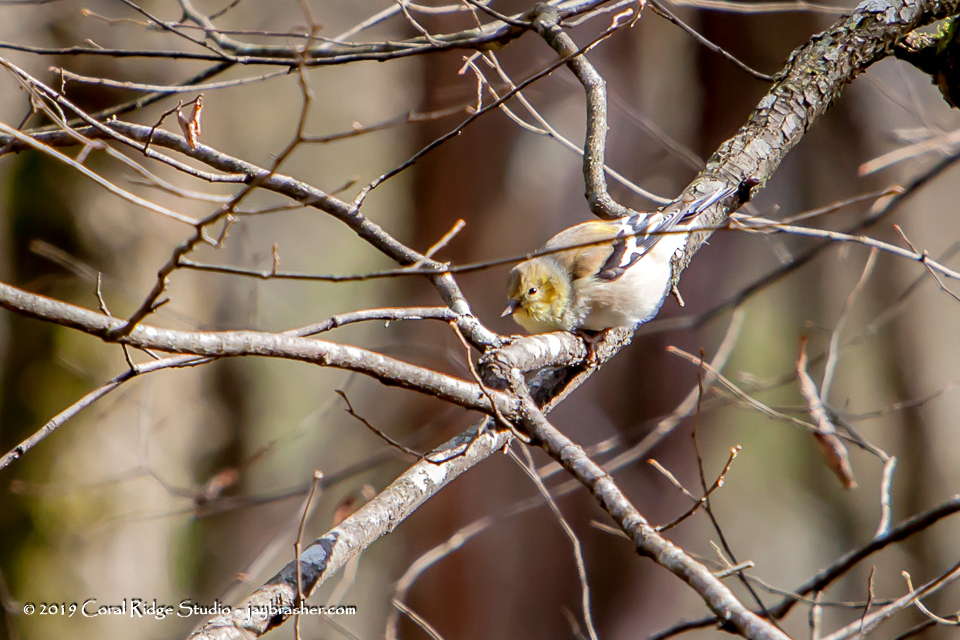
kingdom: Animalia
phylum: Chordata
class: Aves
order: Passeriformes
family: Fringillidae
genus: Spinus
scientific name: Spinus tristis
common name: American goldfinch
